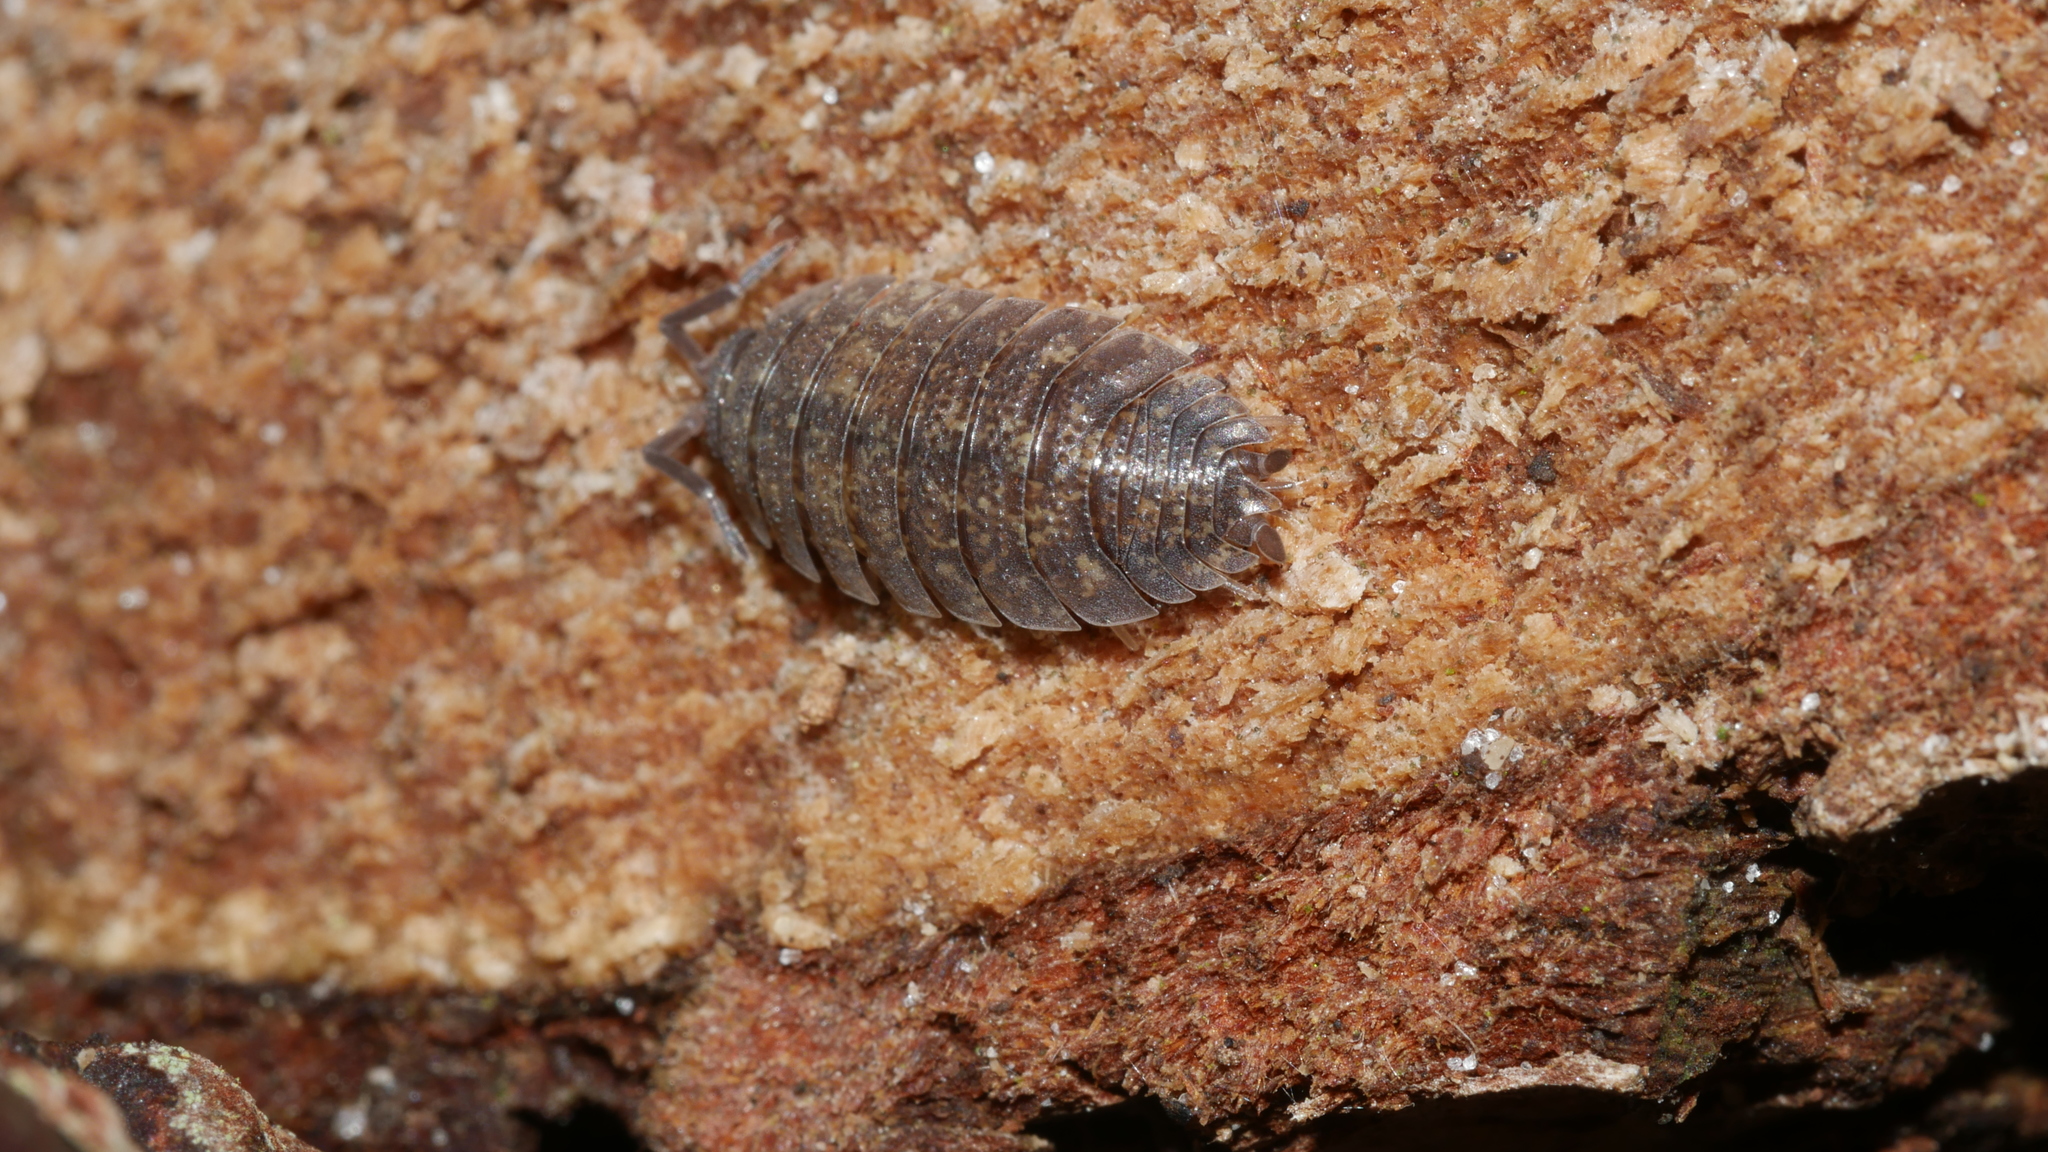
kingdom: Animalia
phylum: Arthropoda
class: Malacostraca
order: Isopoda
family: Porcellionidae
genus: Porcellio
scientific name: Porcellio scaber
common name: Common rough woodlouse
